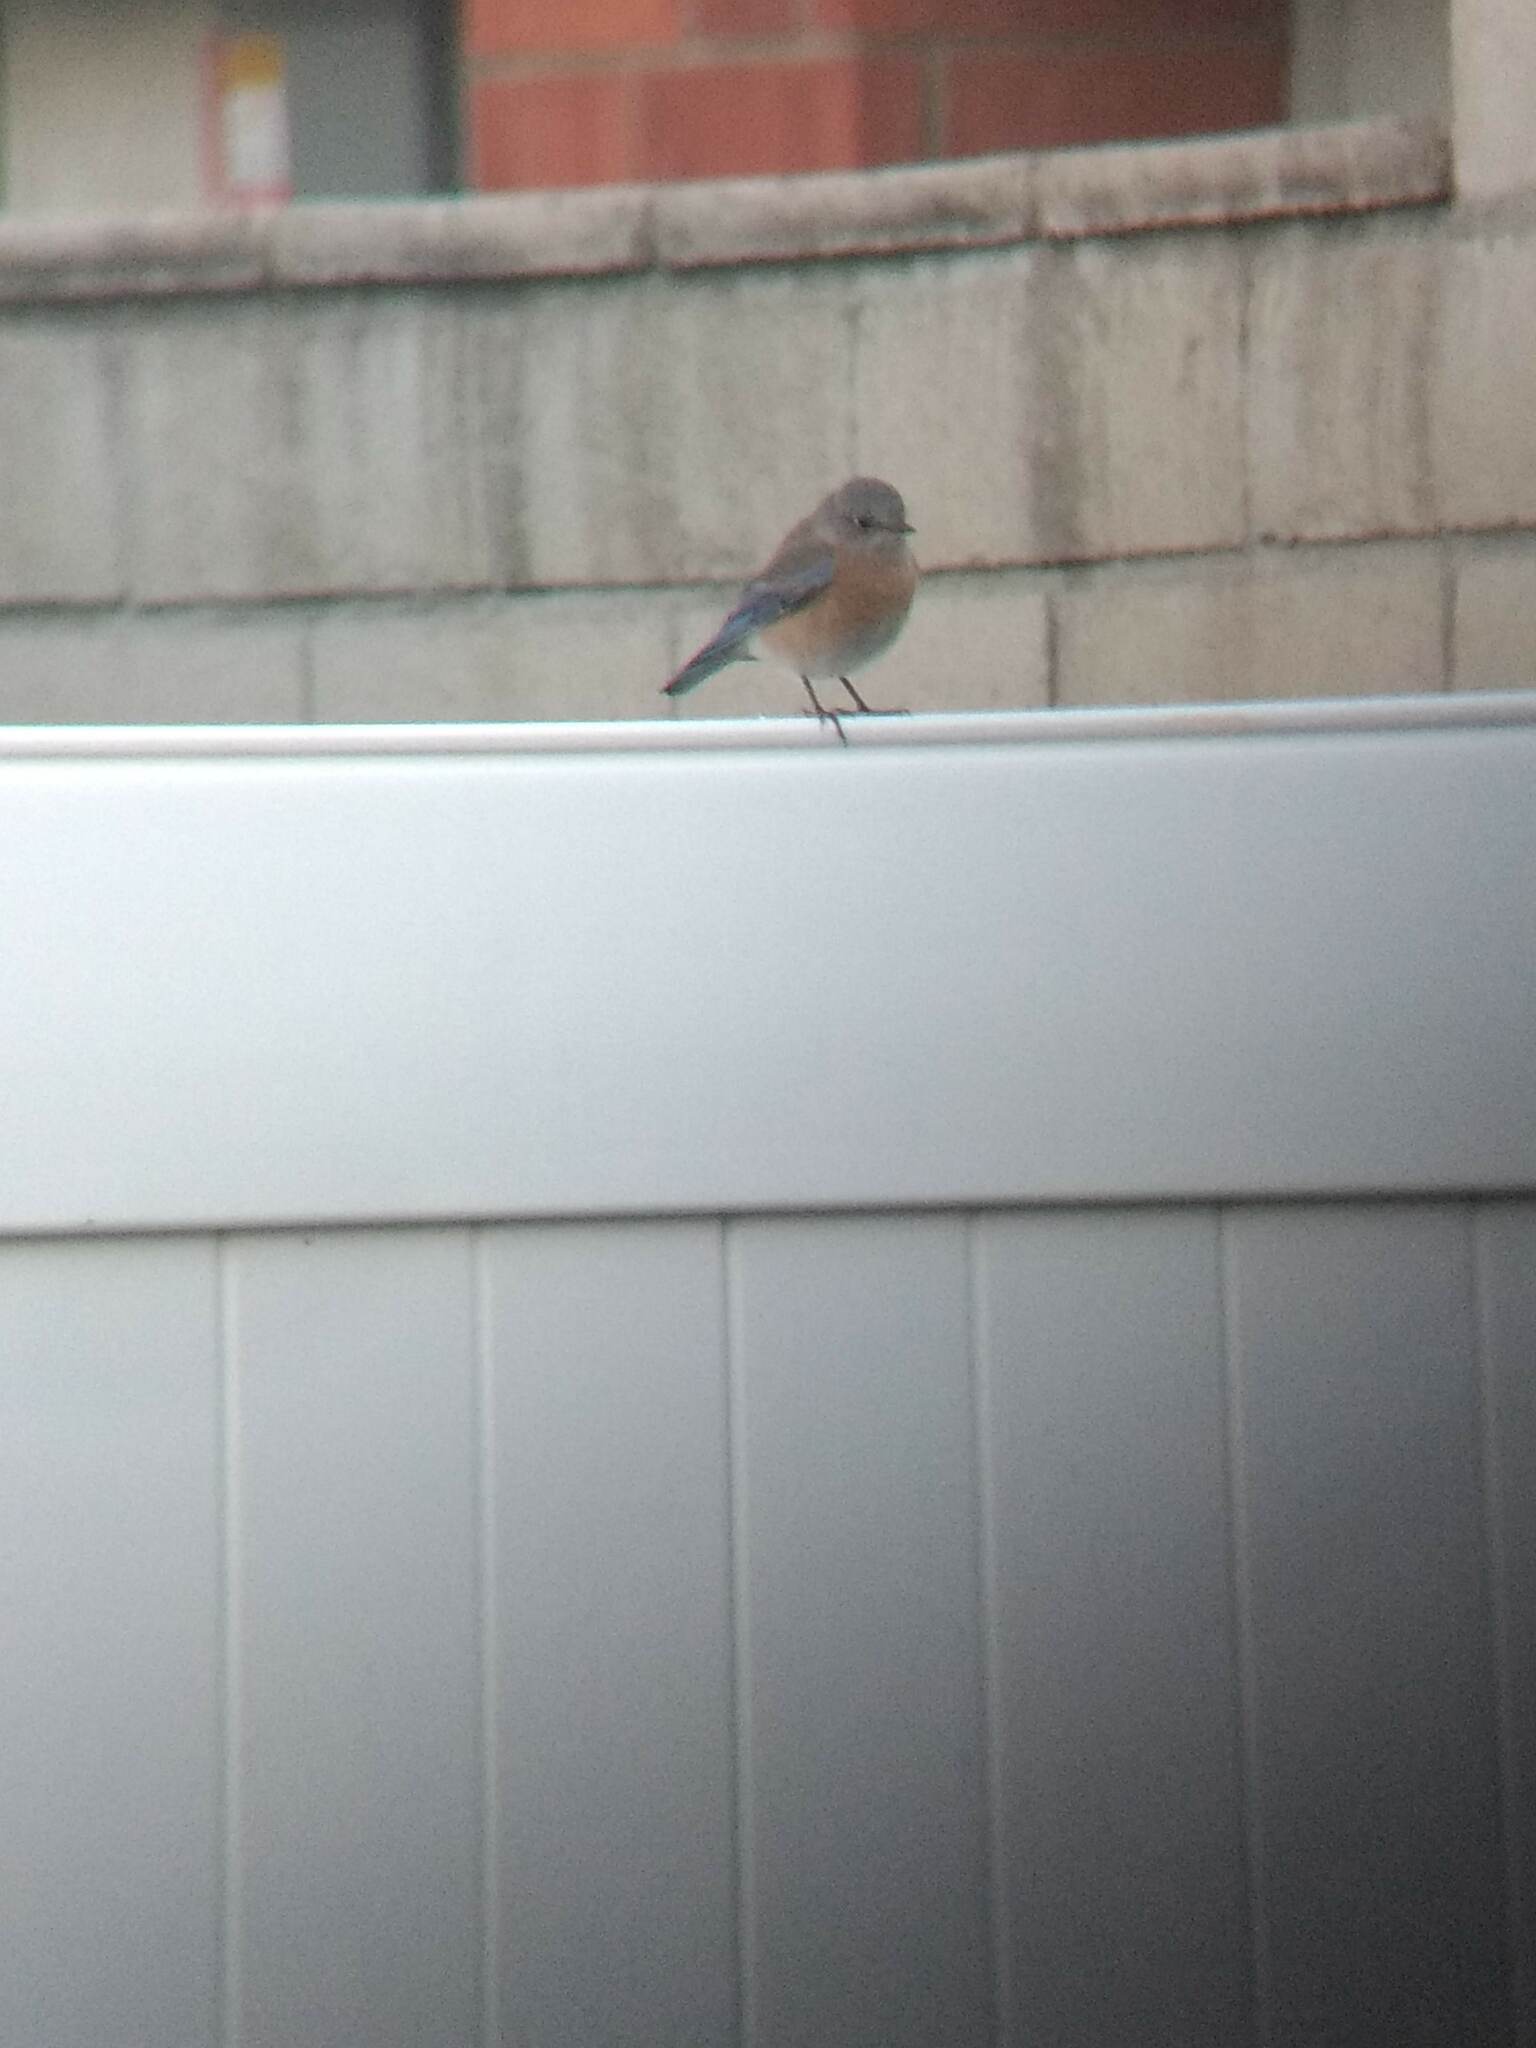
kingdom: Animalia
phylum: Chordata
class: Aves
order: Passeriformes
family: Turdidae
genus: Sialia
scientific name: Sialia mexicana
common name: Western bluebird
